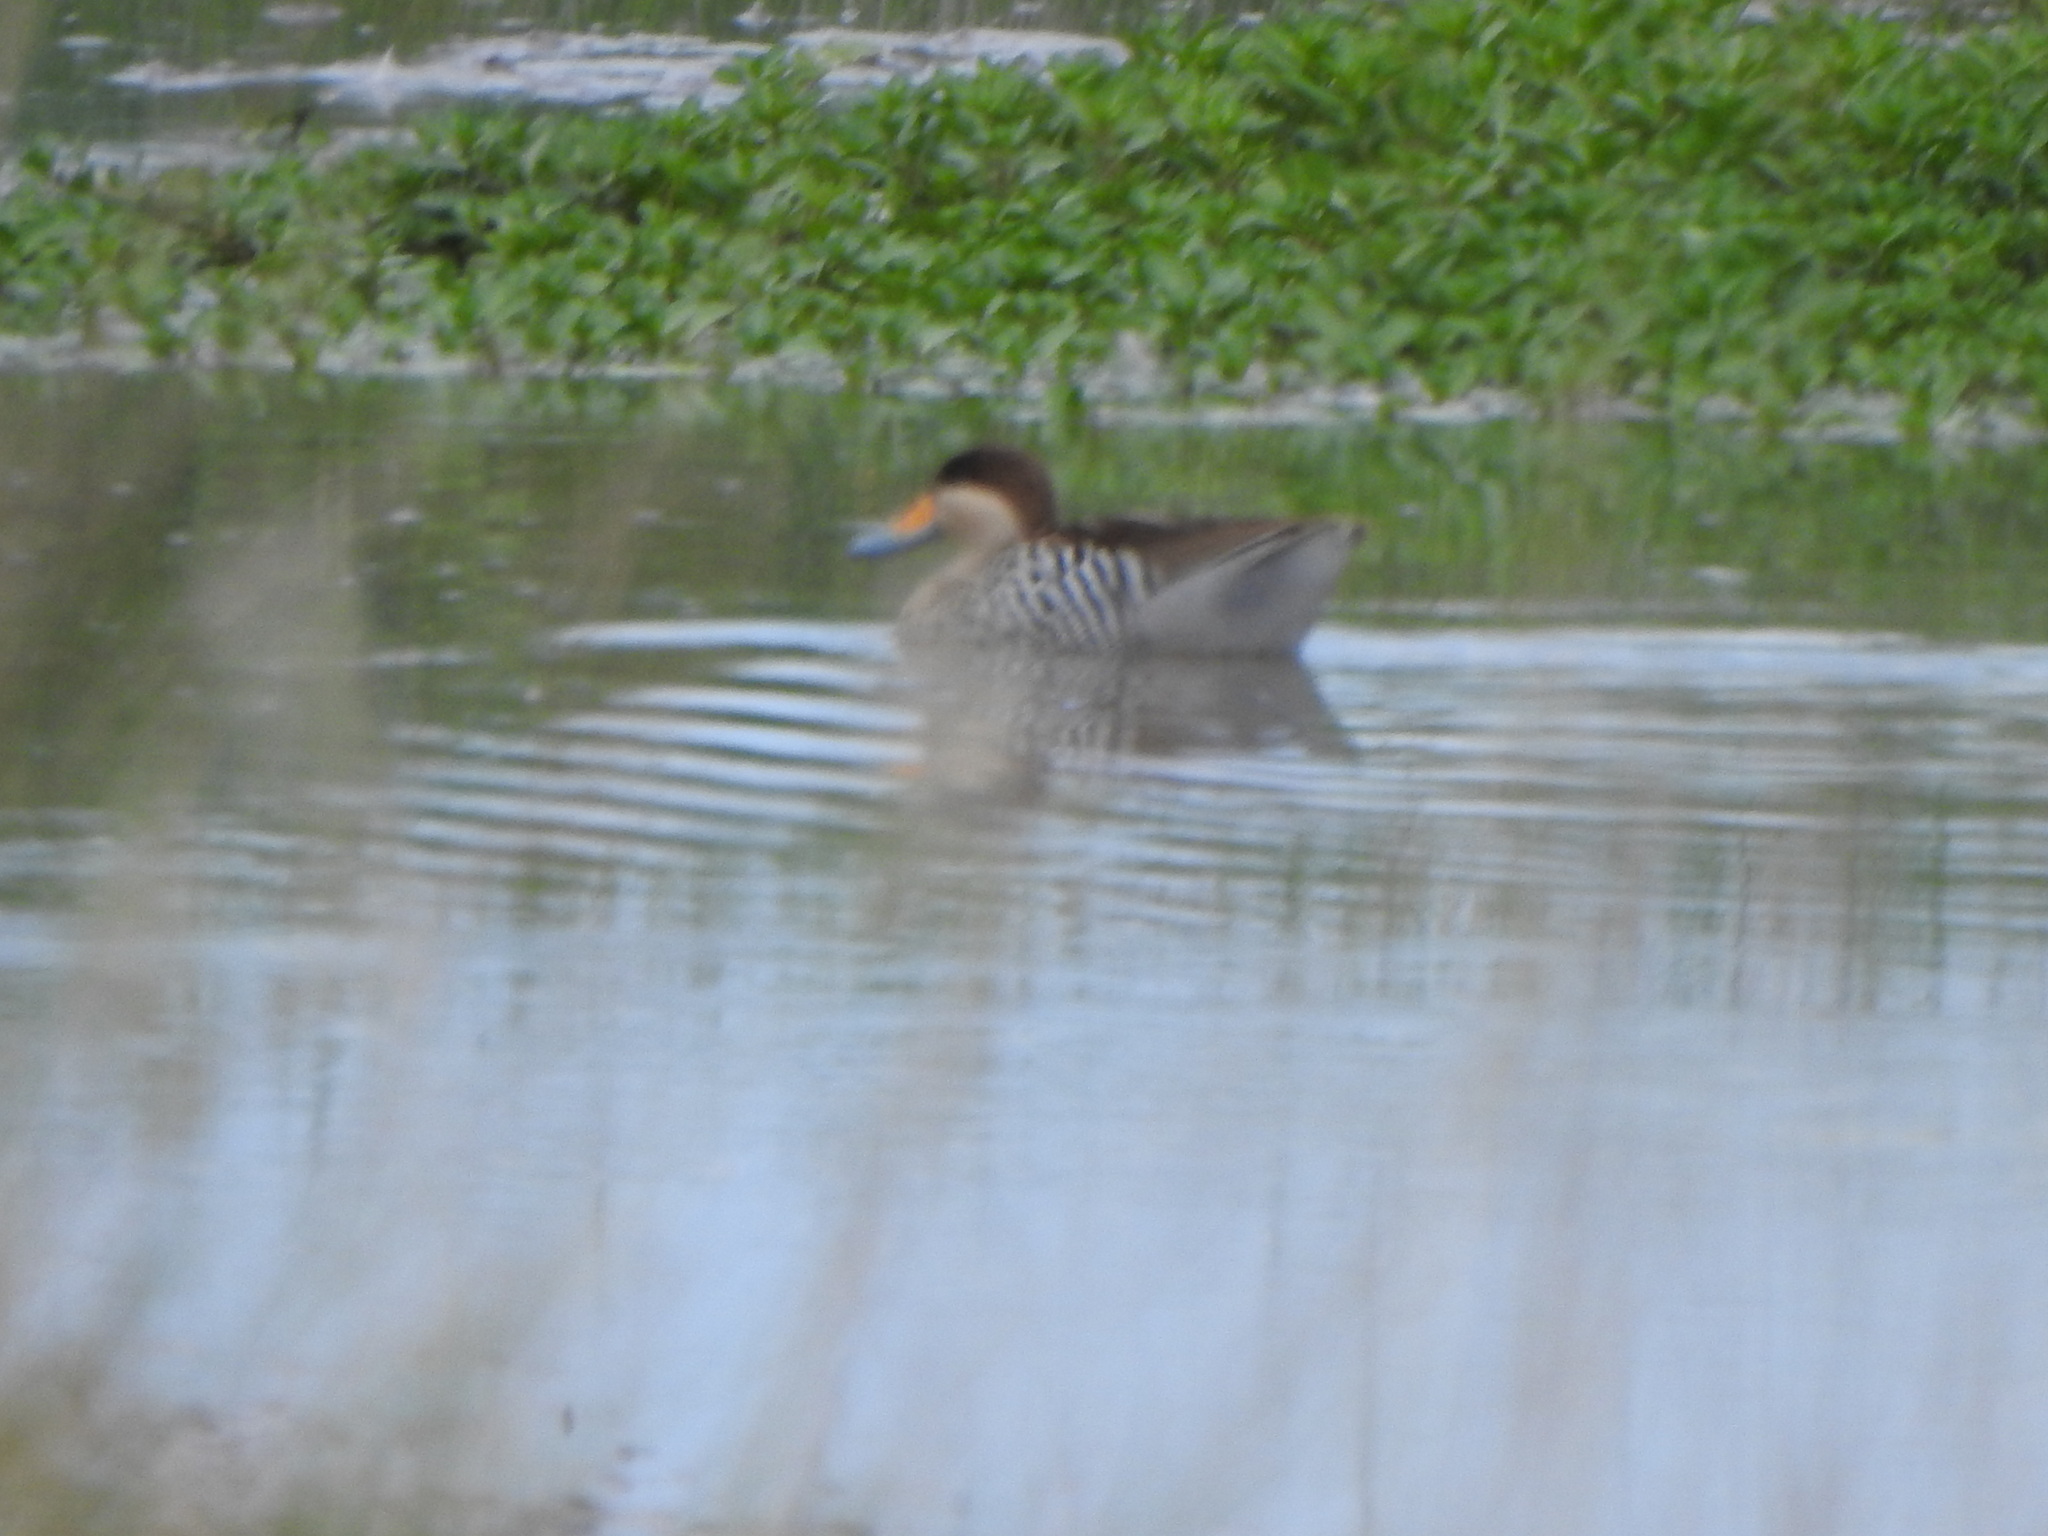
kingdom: Animalia
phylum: Chordata
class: Aves
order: Anseriformes
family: Anatidae
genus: Spatula
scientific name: Spatula versicolor
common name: Silver teal
